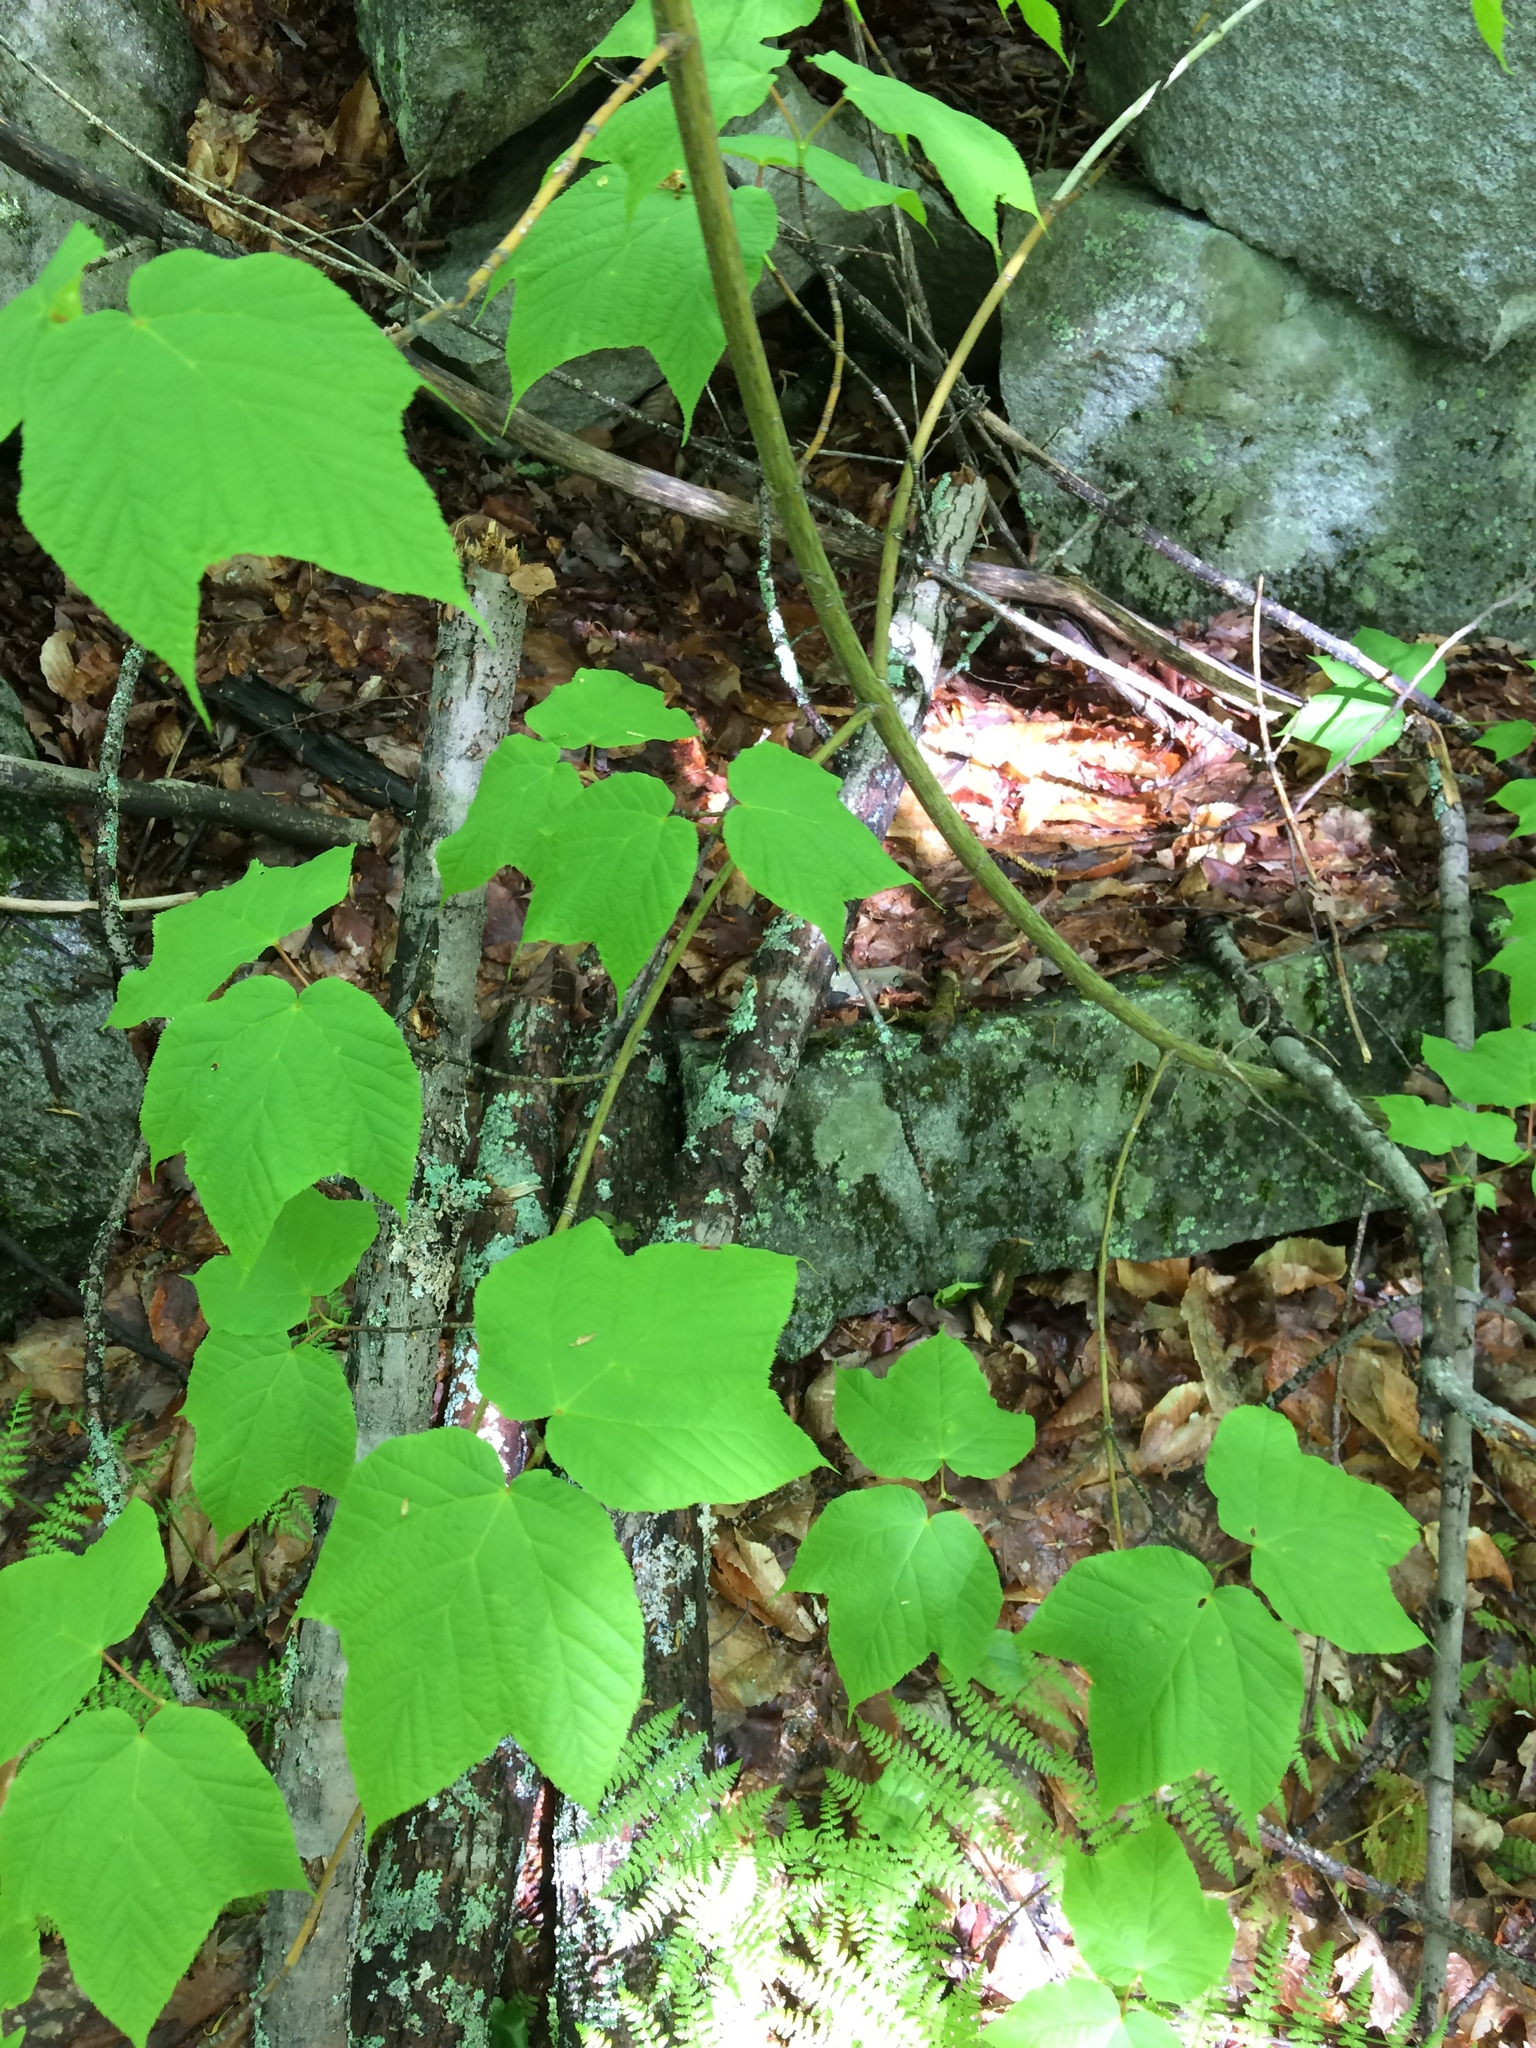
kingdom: Plantae
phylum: Tracheophyta
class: Magnoliopsida
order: Sapindales
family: Sapindaceae
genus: Acer
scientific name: Acer pensylvanicum
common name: Moosewood
